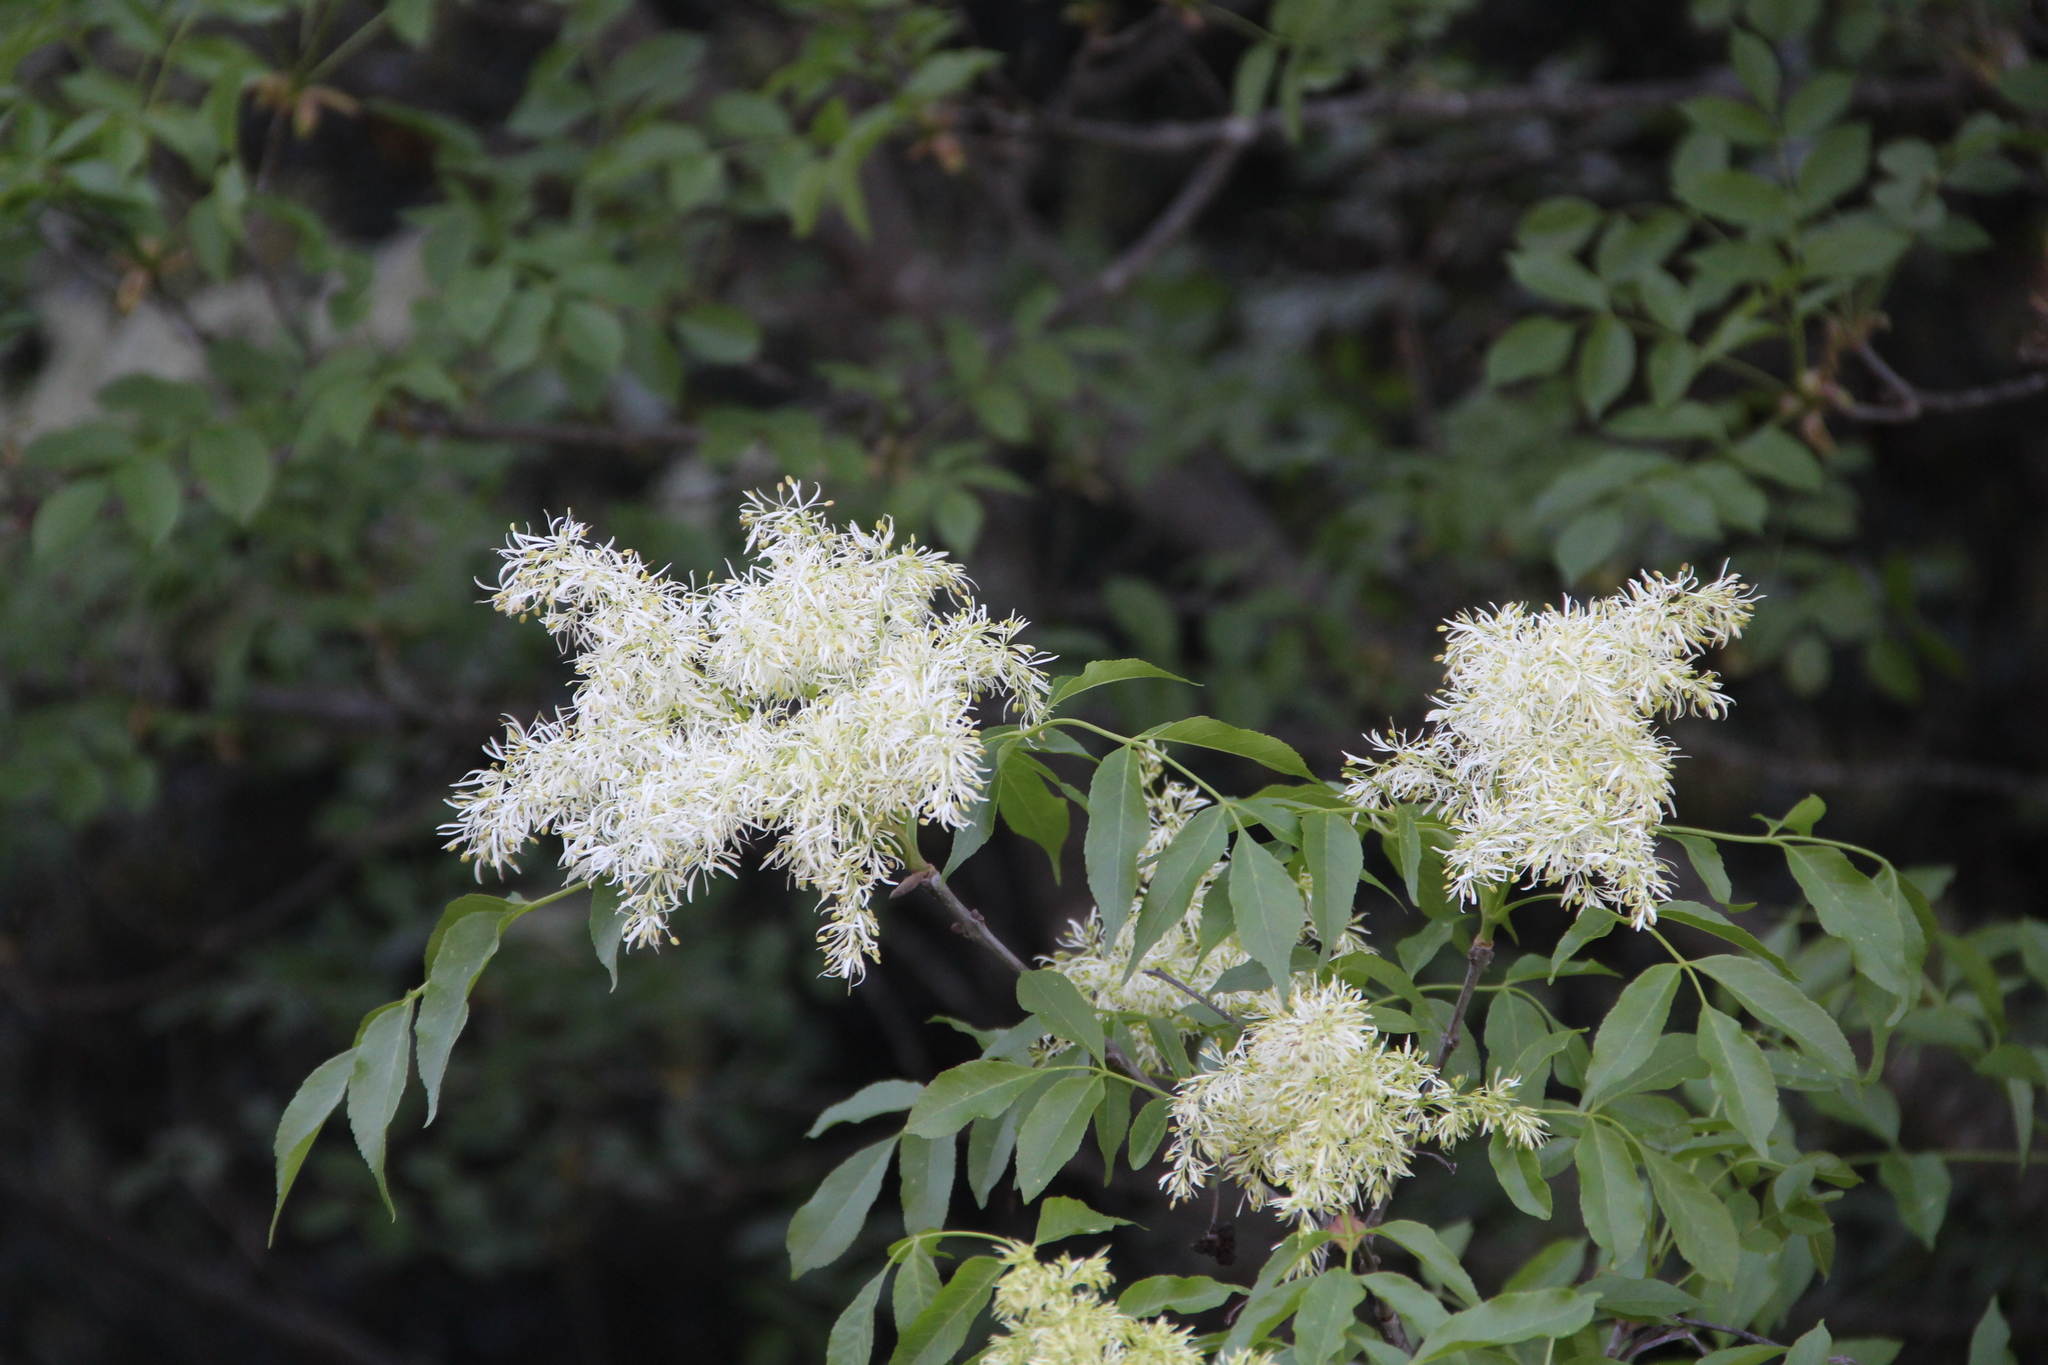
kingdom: Plantae
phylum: Tracheophyta
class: Magnoliopsida
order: Lamiales
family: Oleaceae
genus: Fraxinus
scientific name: Fraxinus ornus
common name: Manna ash
